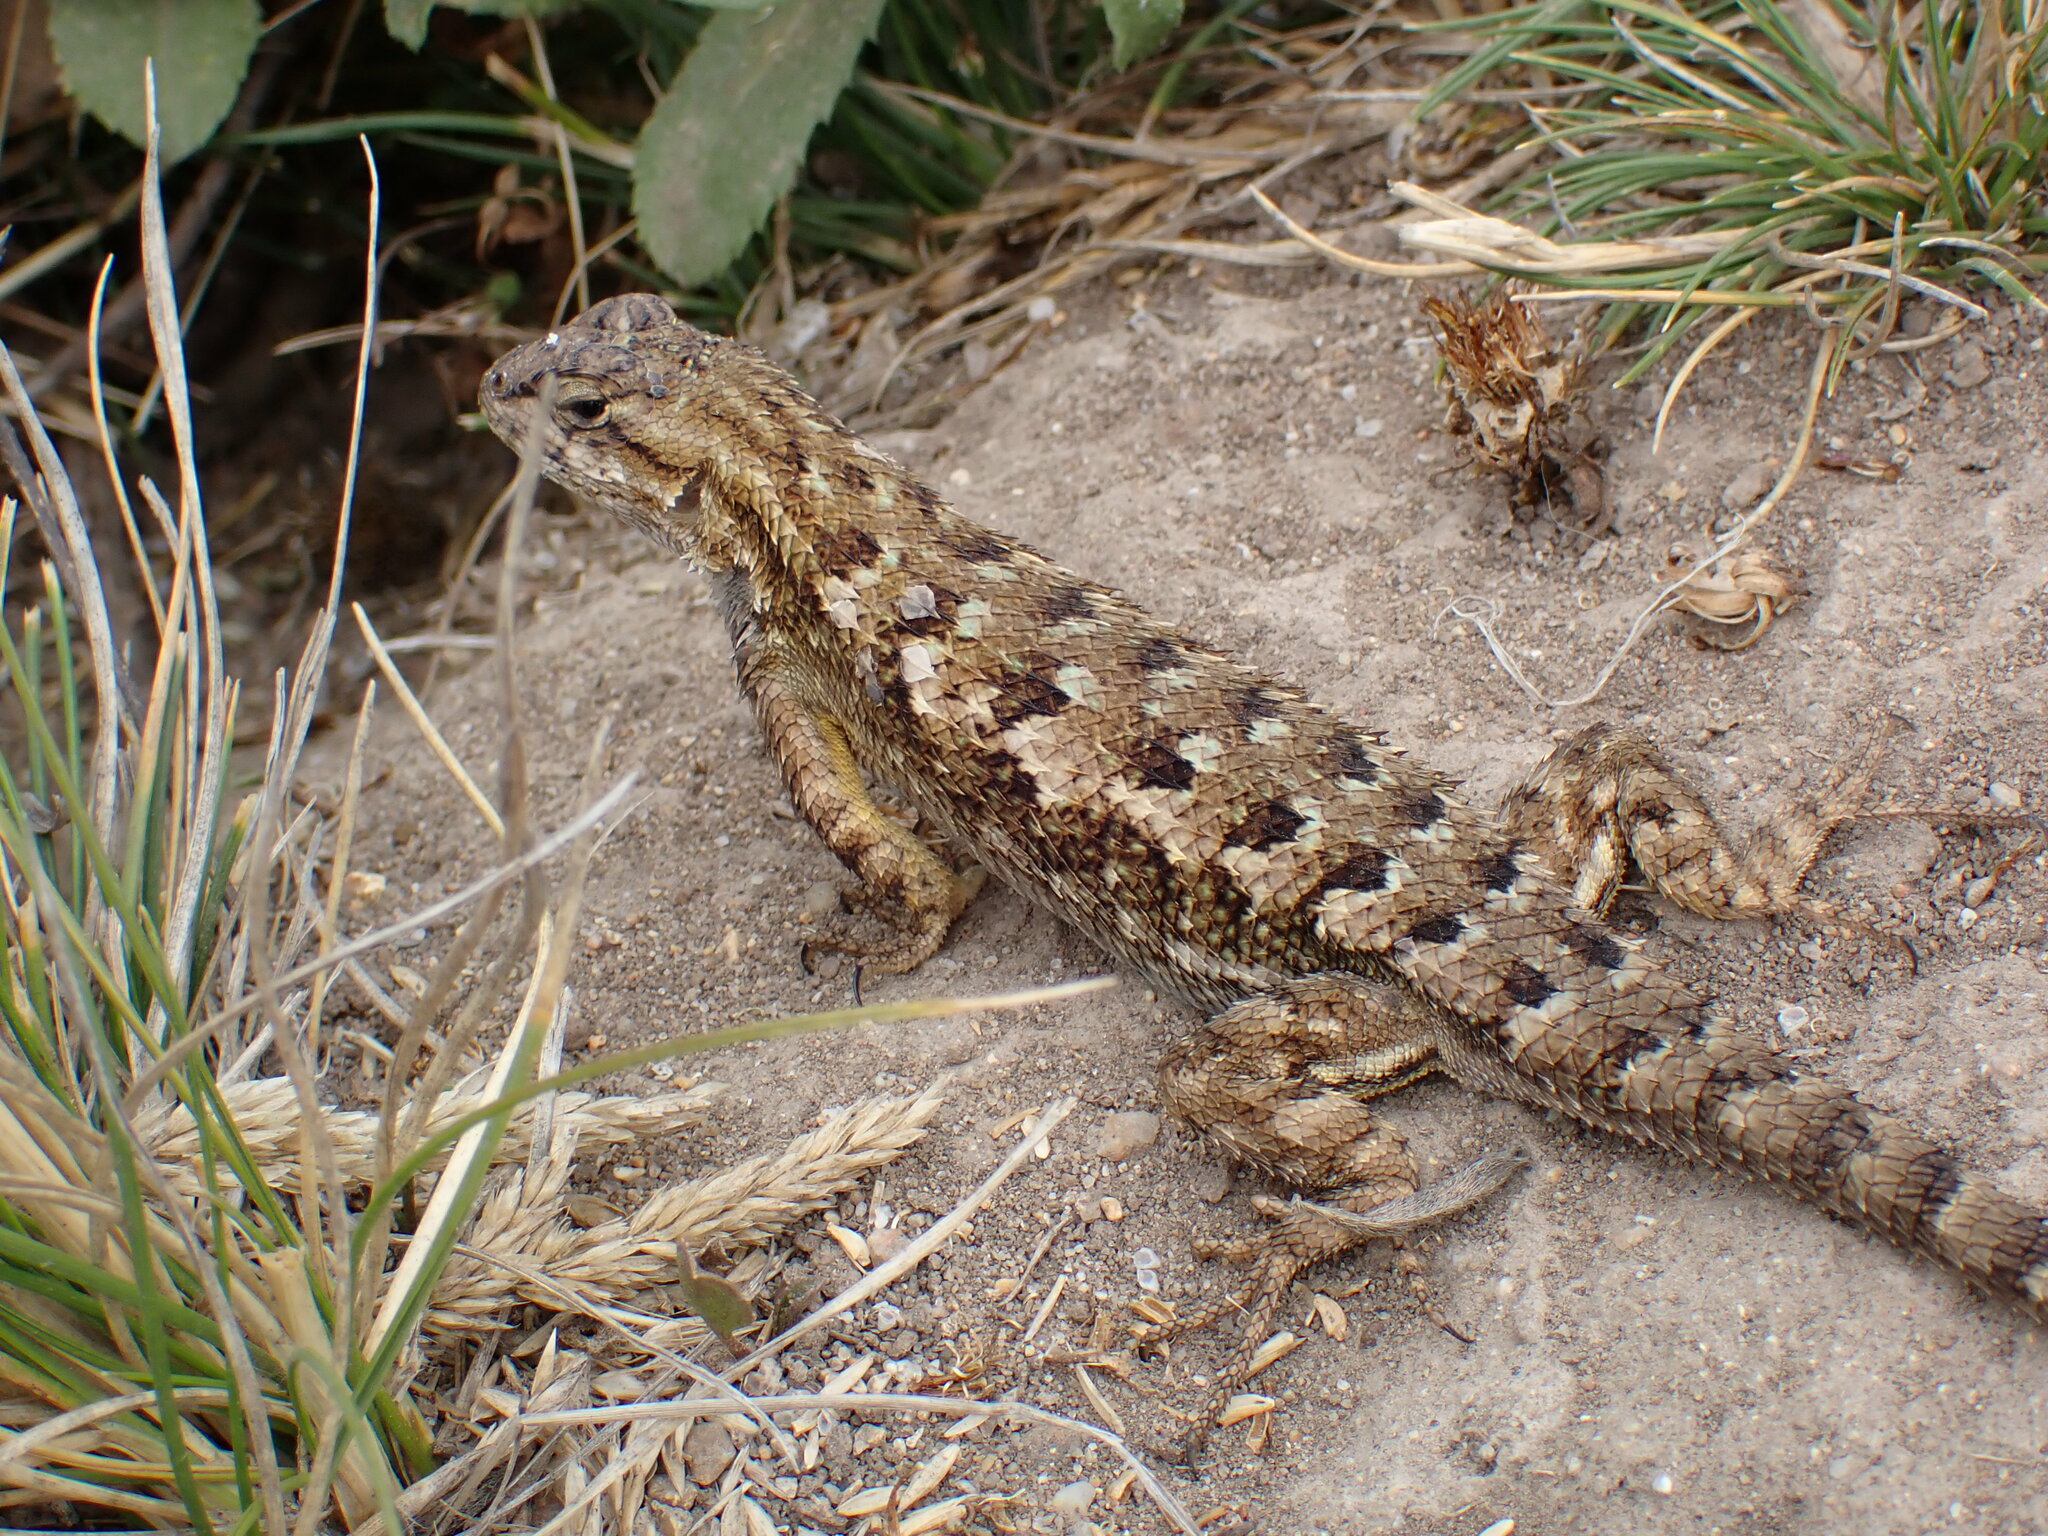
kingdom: Animalia
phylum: Chordata
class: Squamata
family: Phrynosomatidae
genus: Sceloporus
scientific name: Sceloporus occidentalis
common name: Western fence lizard
